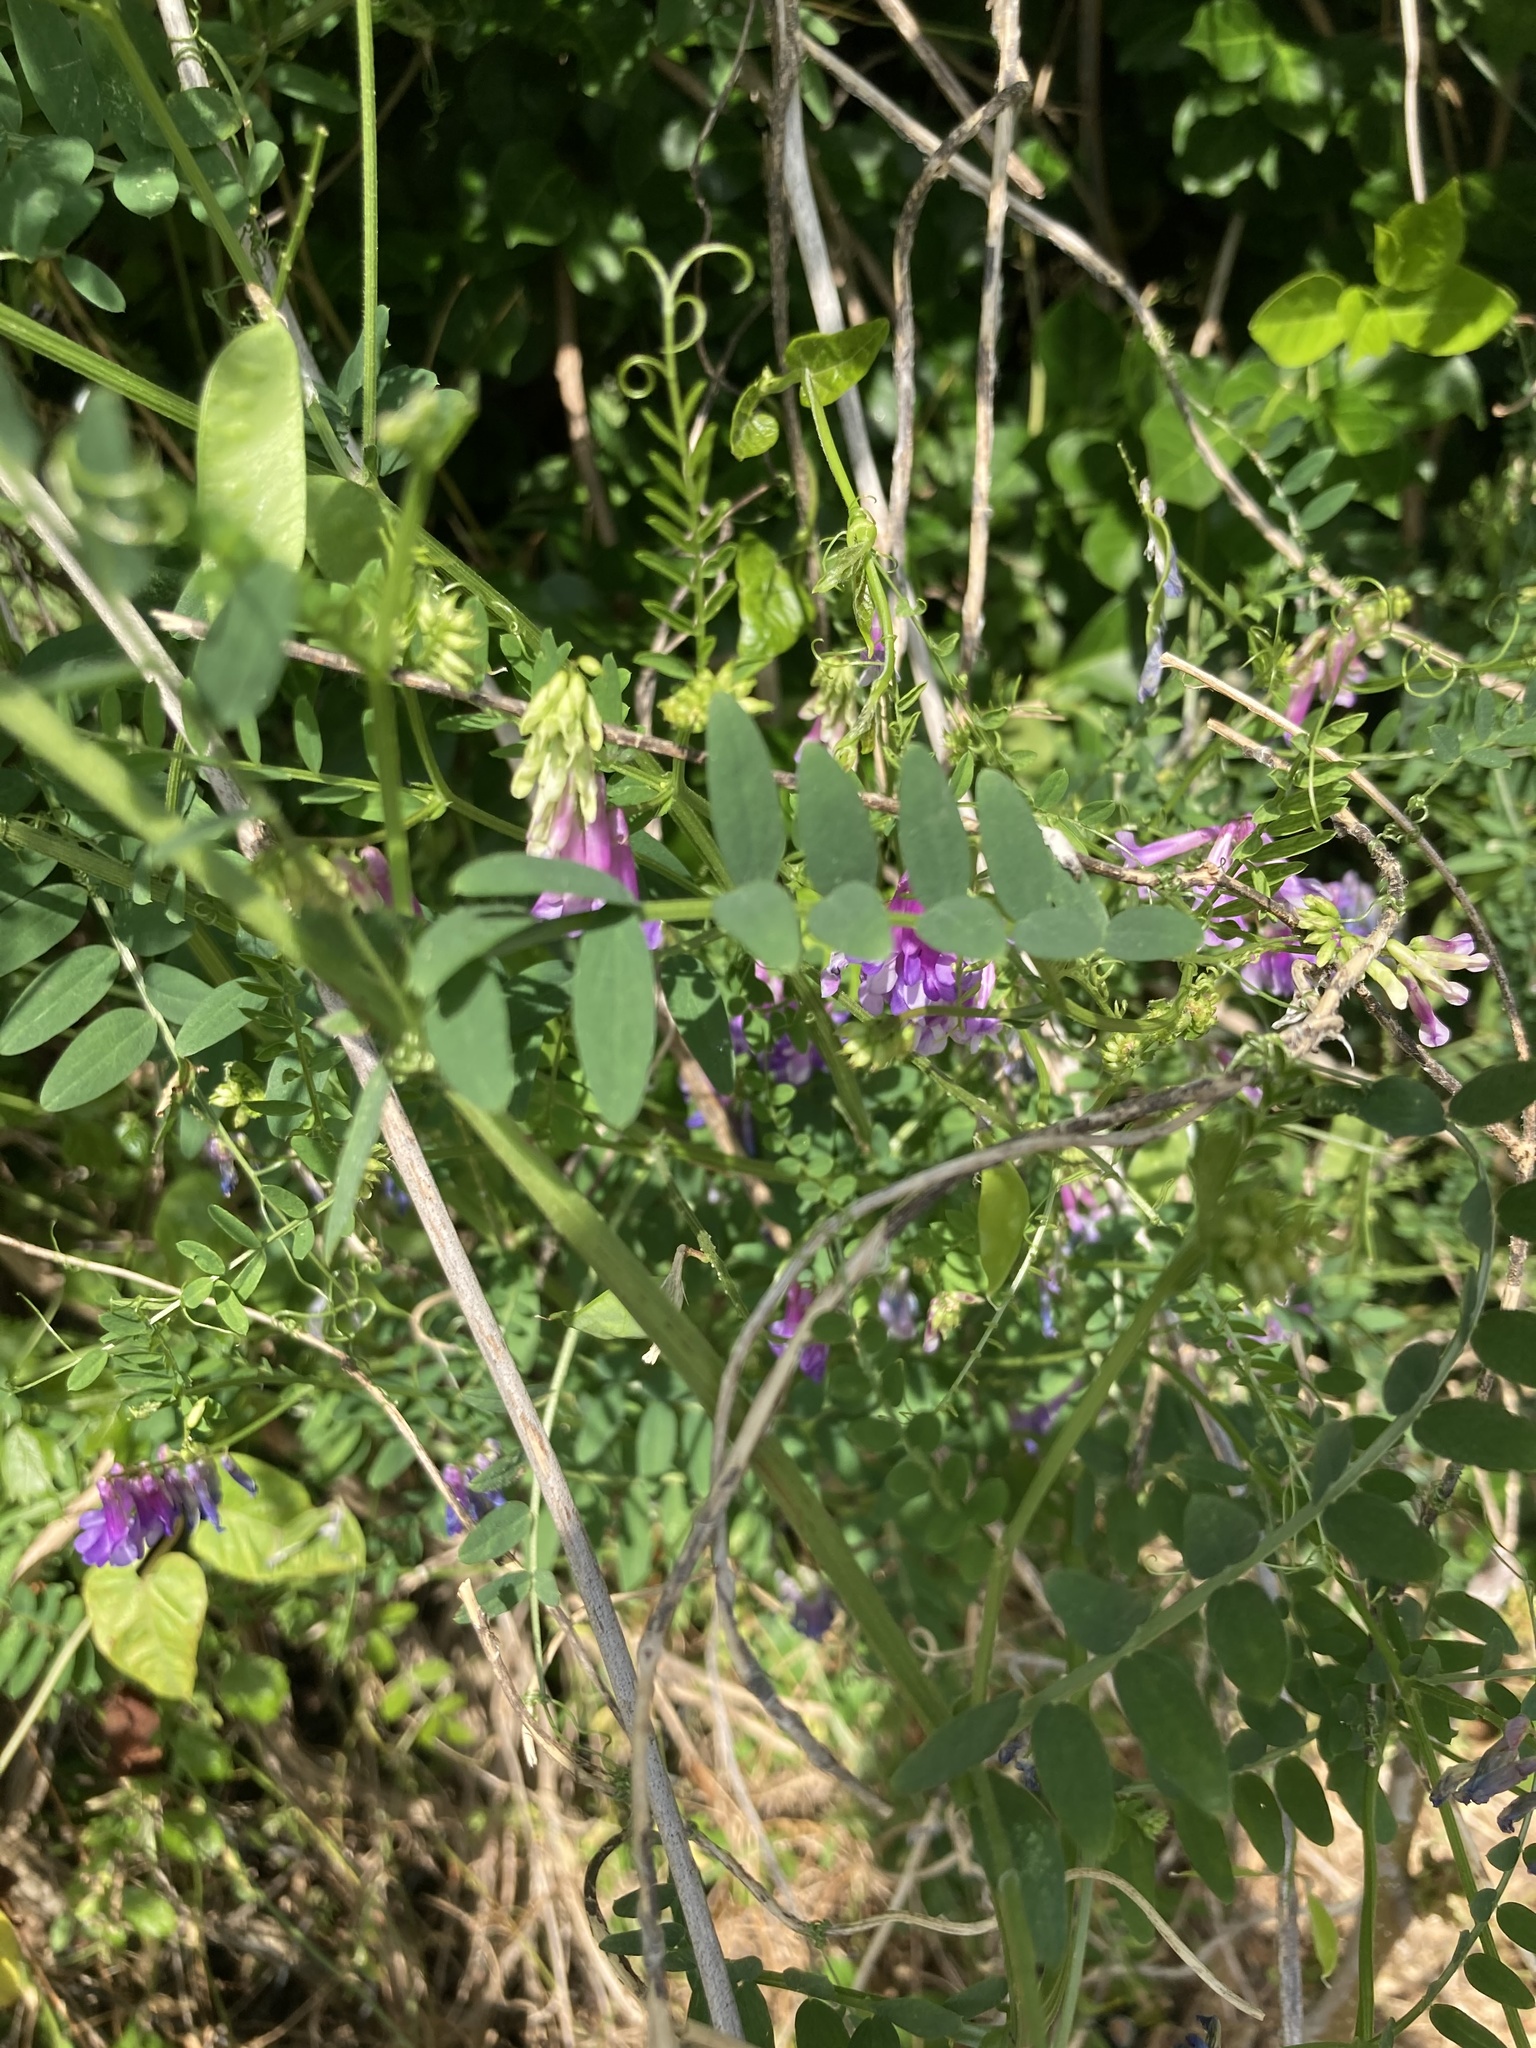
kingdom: Plantae
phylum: Tracheophyta
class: Magnoliopsida
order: Fabales
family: Fabaceae
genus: Vicia
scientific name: Vicia villosa
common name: Fodder vetch
